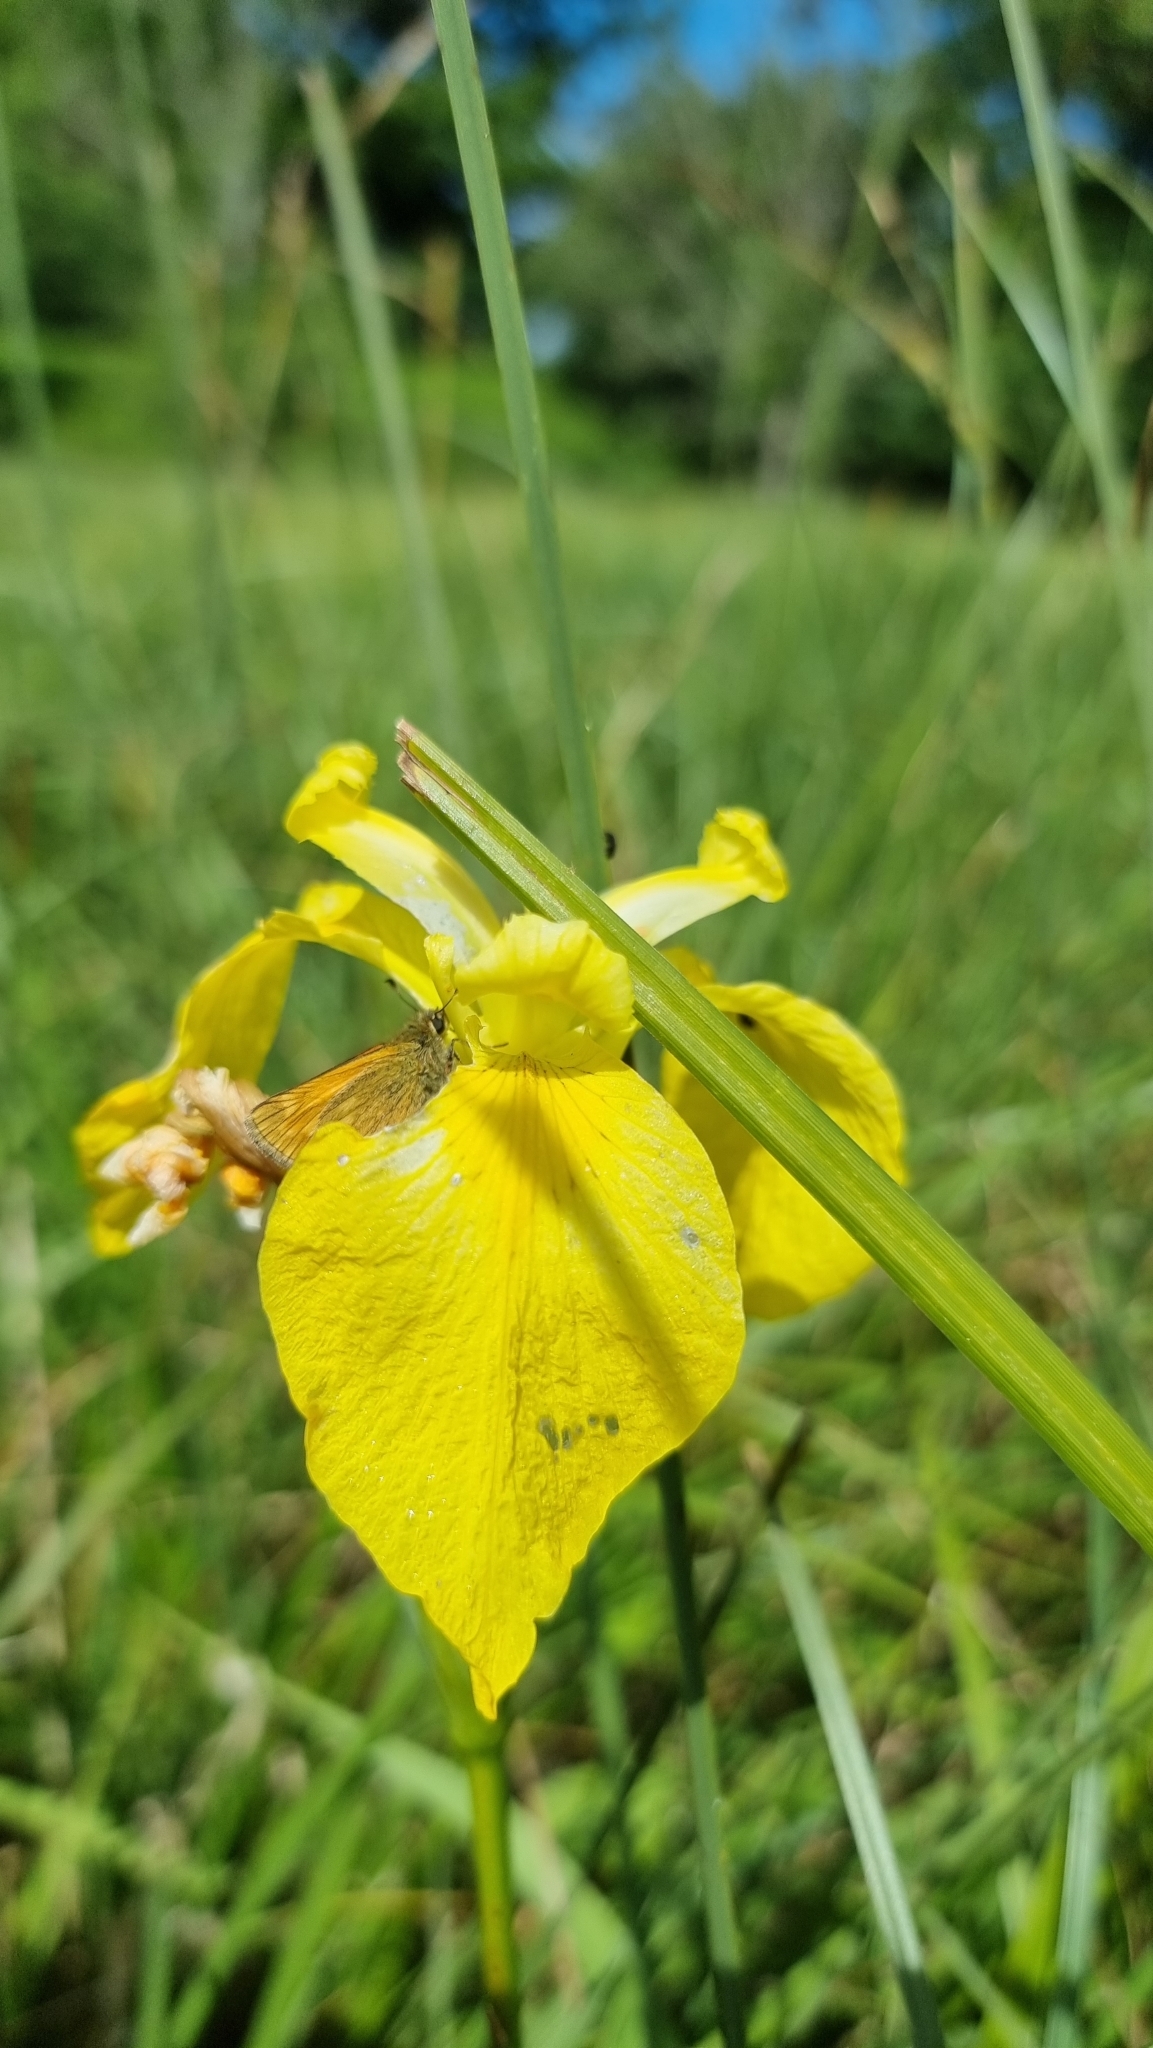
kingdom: Plantae
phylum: Tracheophyta
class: Liliopsida
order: Asparagales
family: Iridaceae
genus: Iris
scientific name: Iris pseudacorus
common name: Yellow flag
